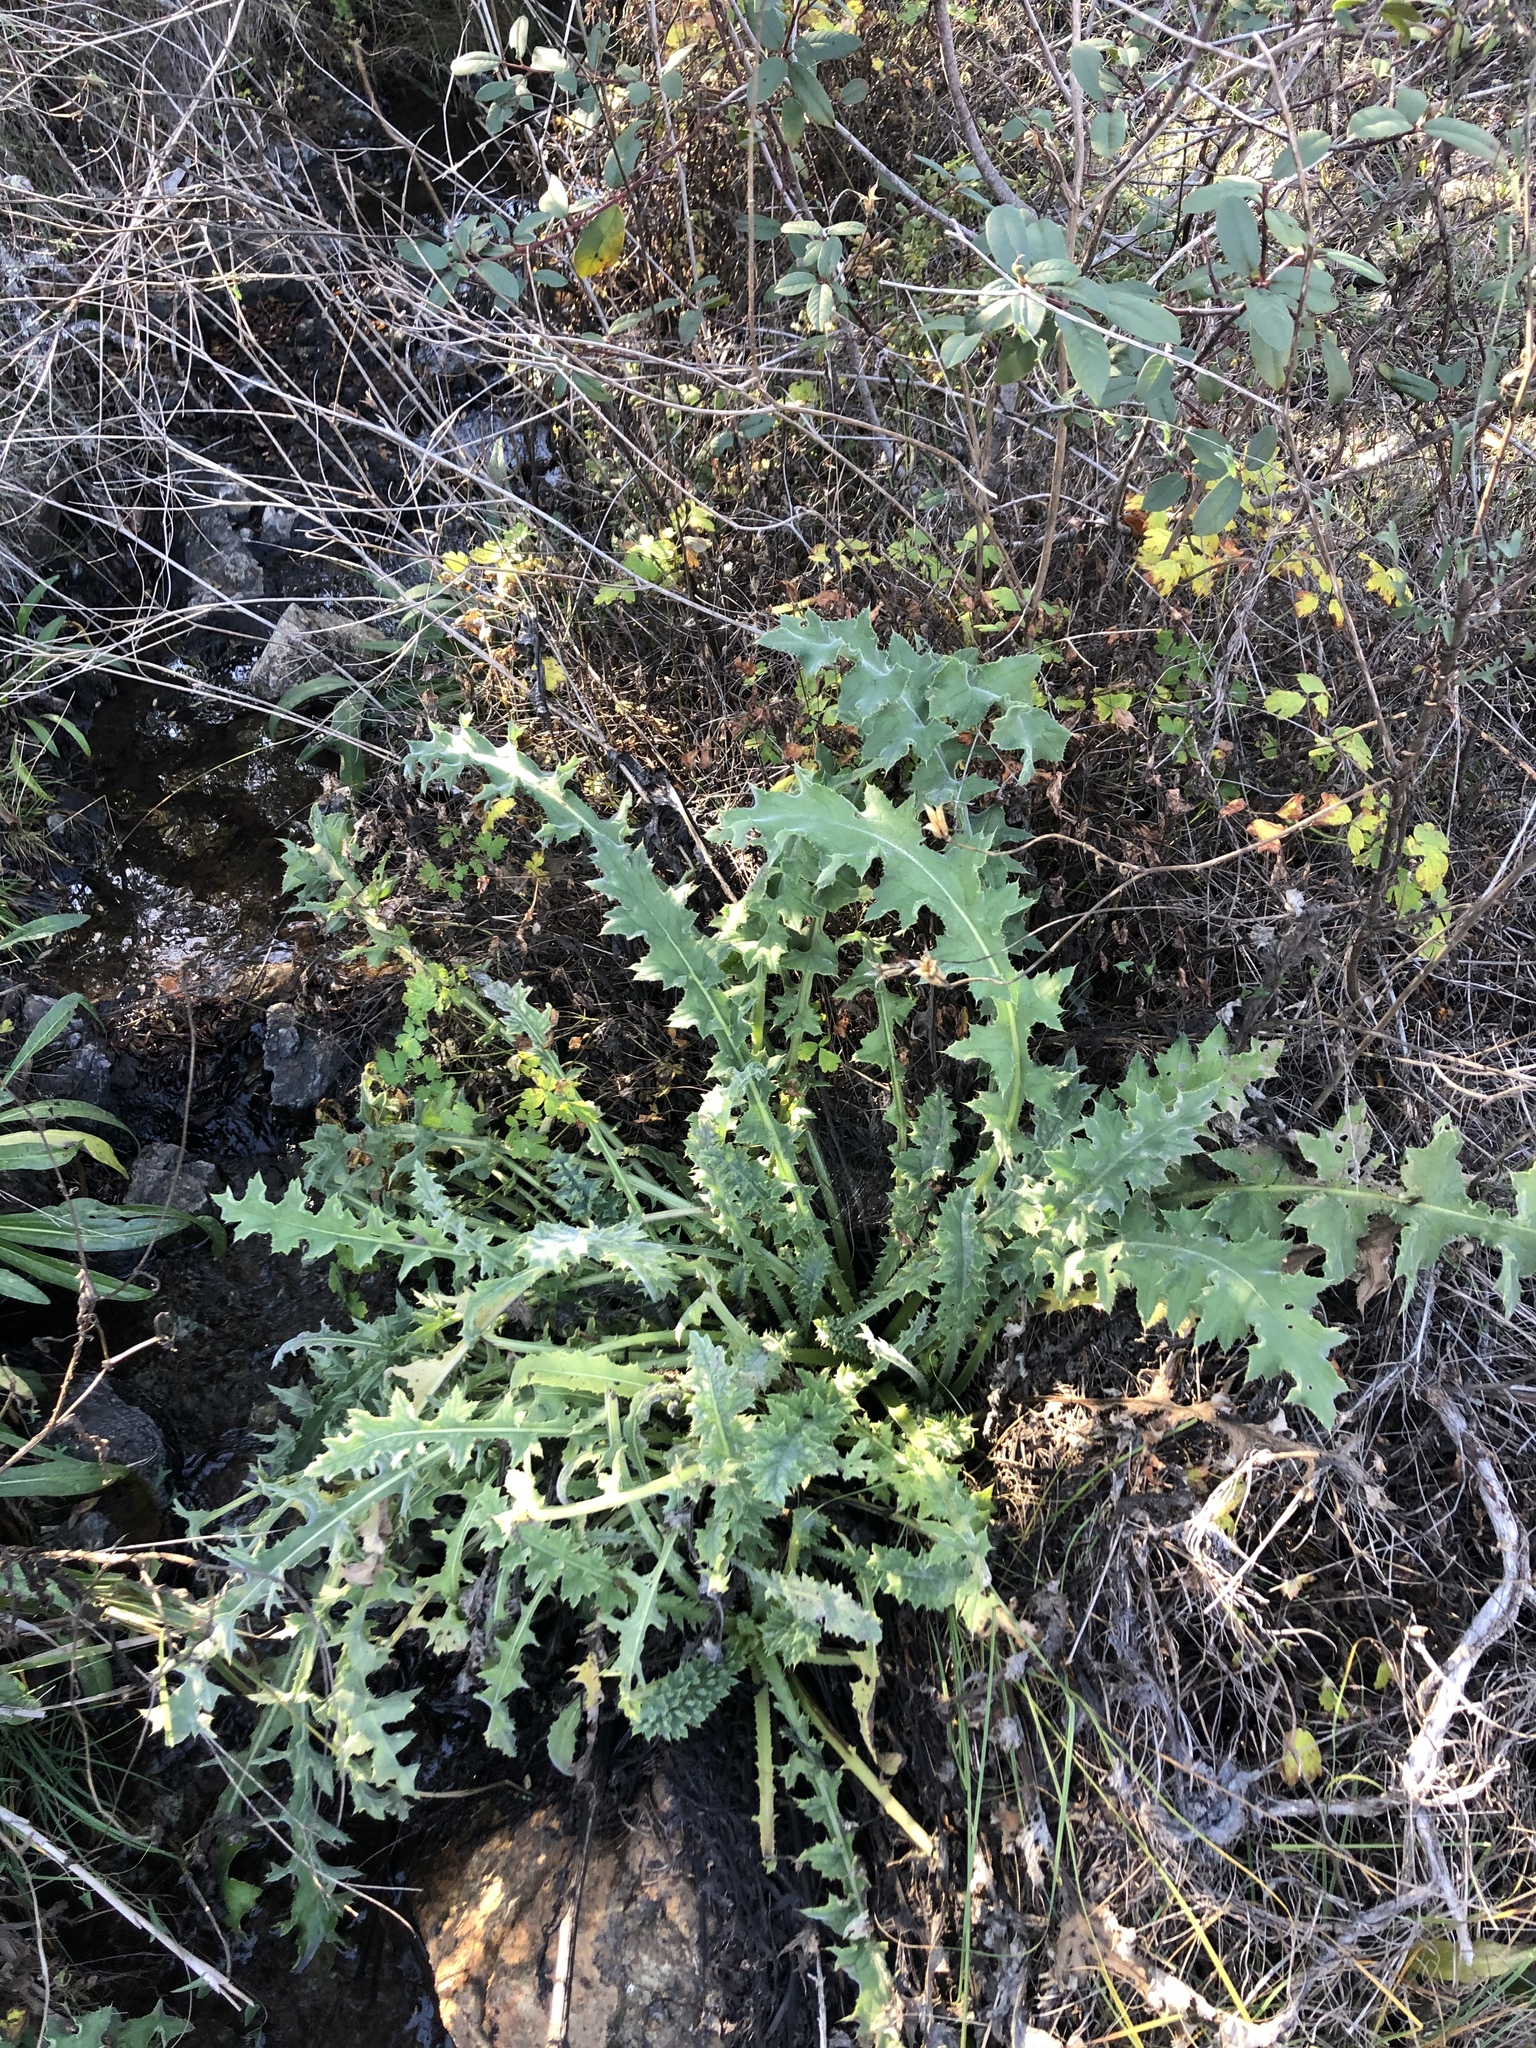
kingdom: Plantae
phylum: Tracheophyta
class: Magnoliopsida
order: Asterales
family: Asteraceae
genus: Cirsium
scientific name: Cirsium fontinale
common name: Fountain thistle
